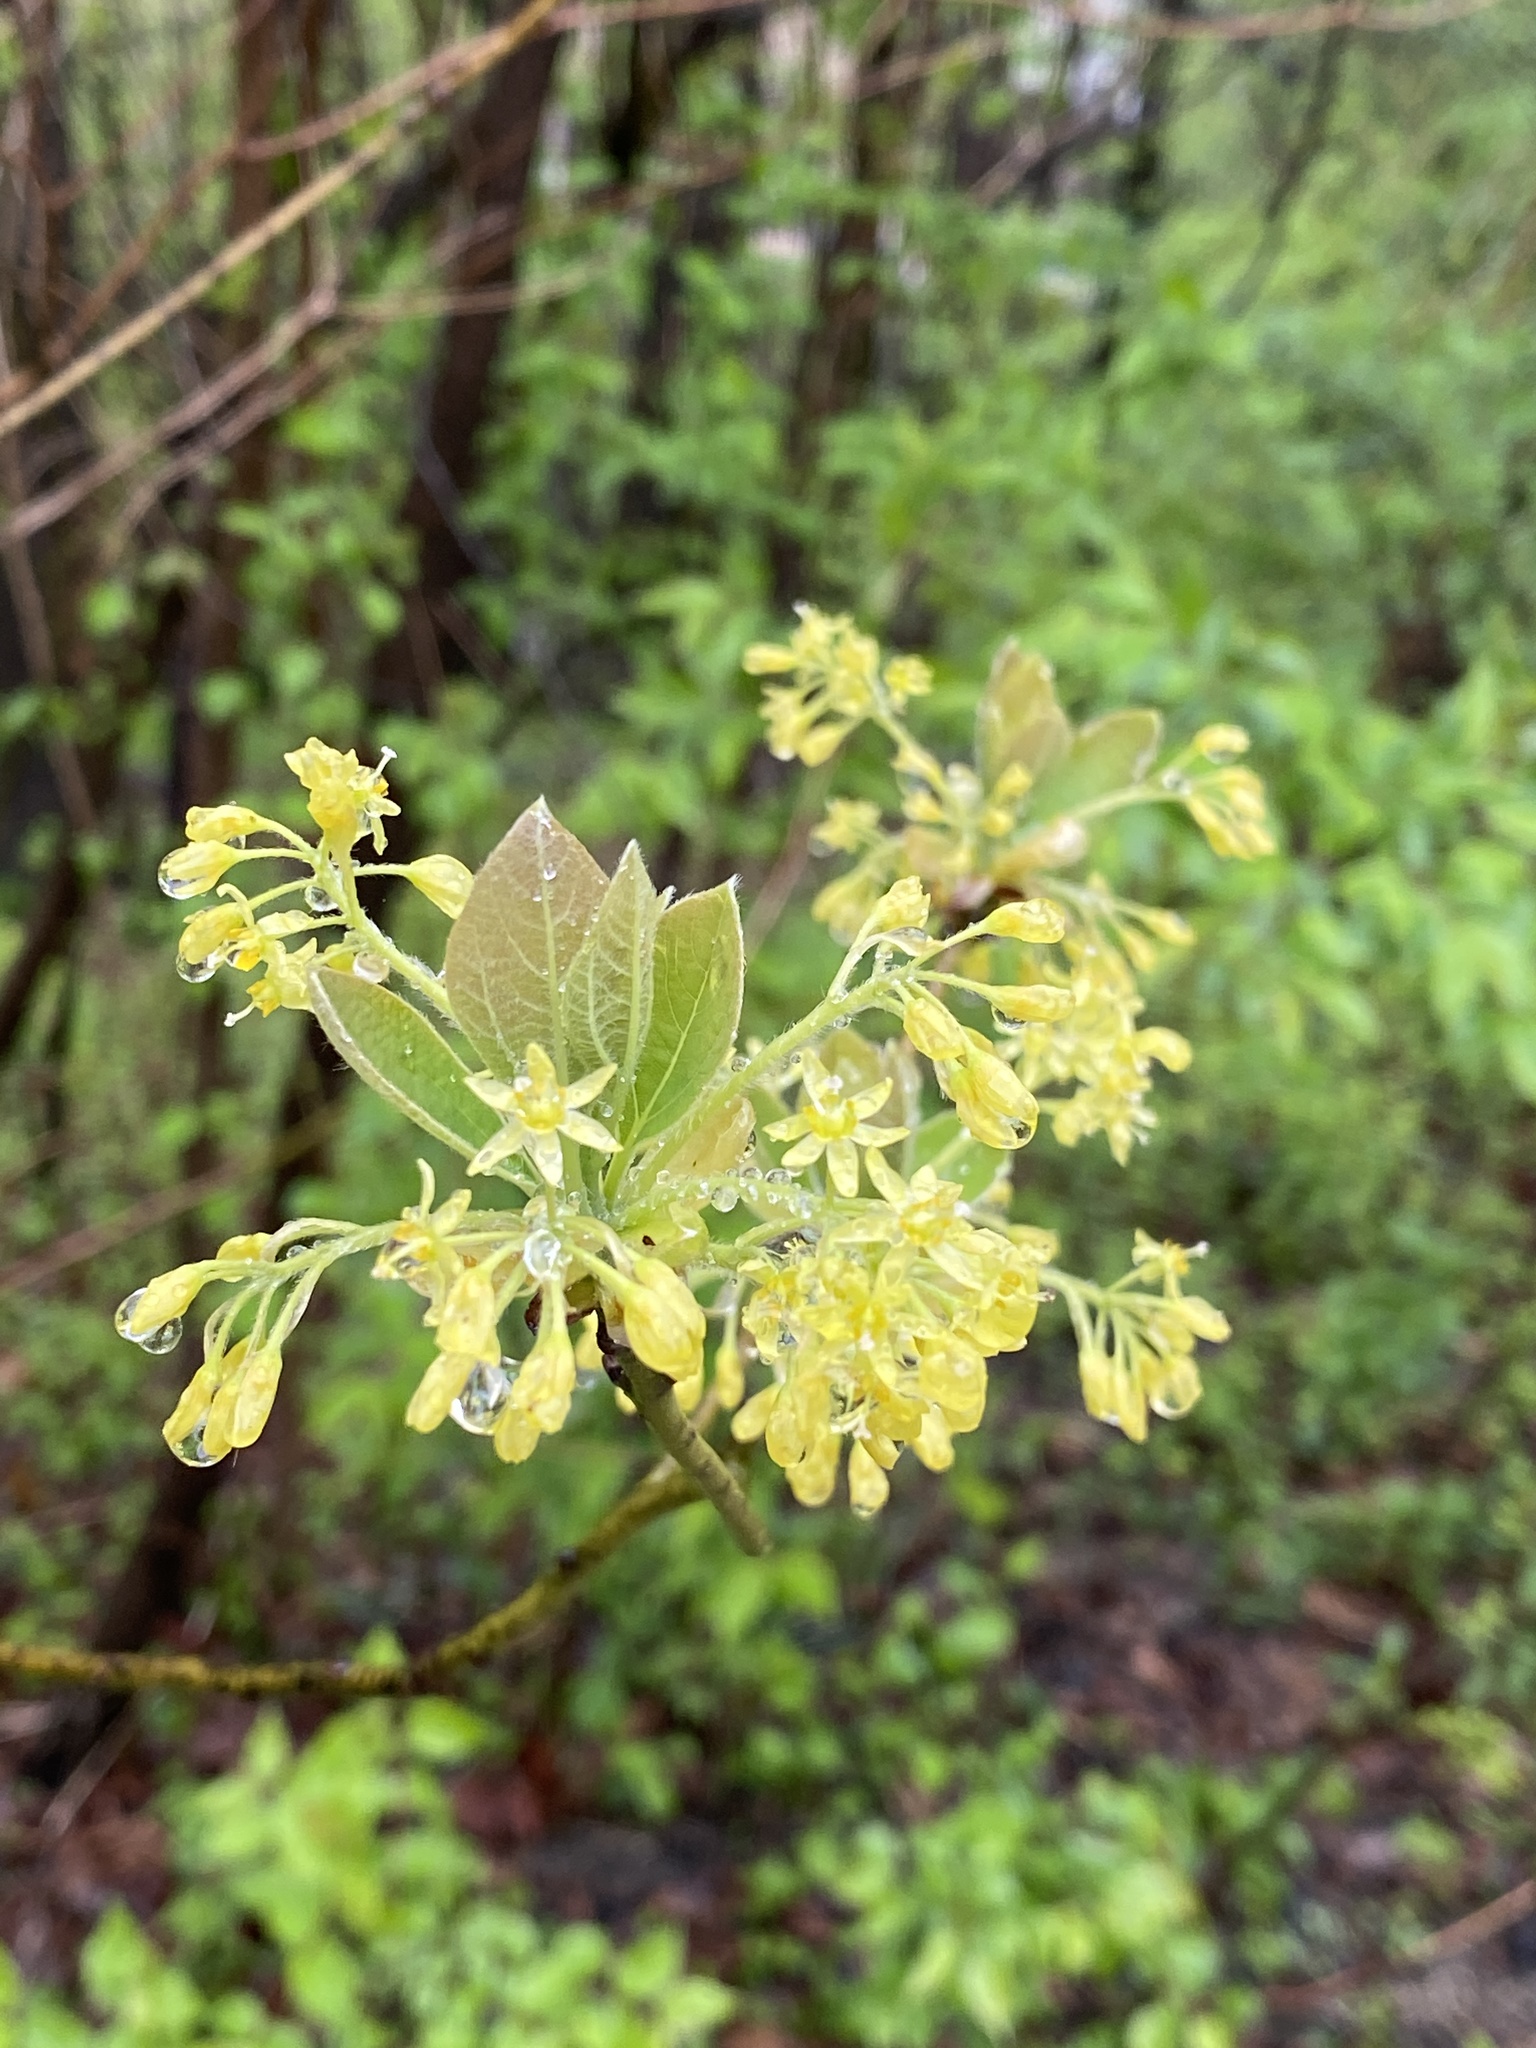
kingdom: Plantae
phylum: Tracheophyta
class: Magnoliopsida
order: Laurales
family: Lauraceae
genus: Sassafras
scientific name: Sassafras albidum
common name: Sassafras
